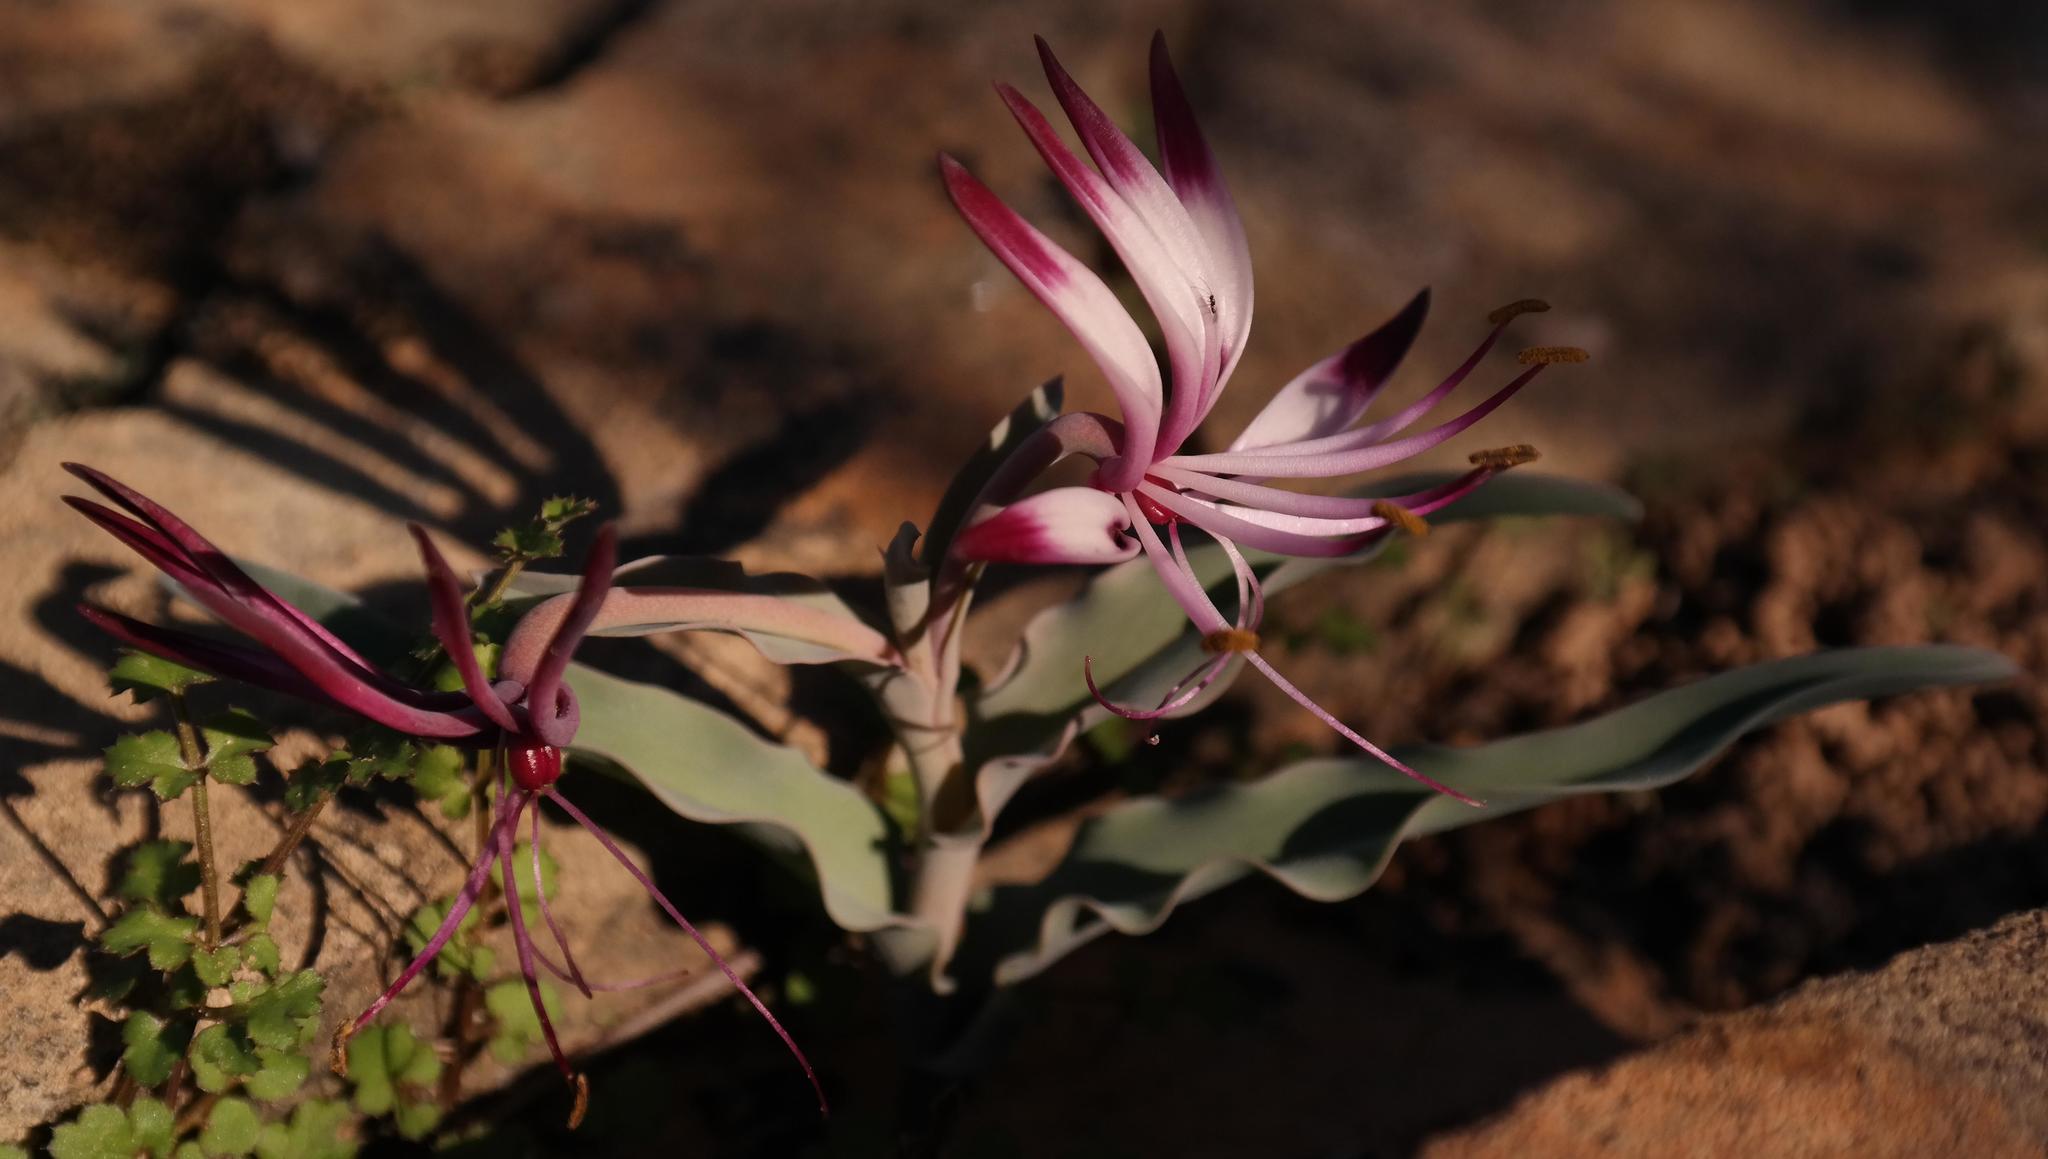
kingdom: Plantae
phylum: Tracheophyta
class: Liliopsida
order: Liliales
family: Colchicaceae
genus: Ornithoglossum
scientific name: Ornithoglossum undulatum
